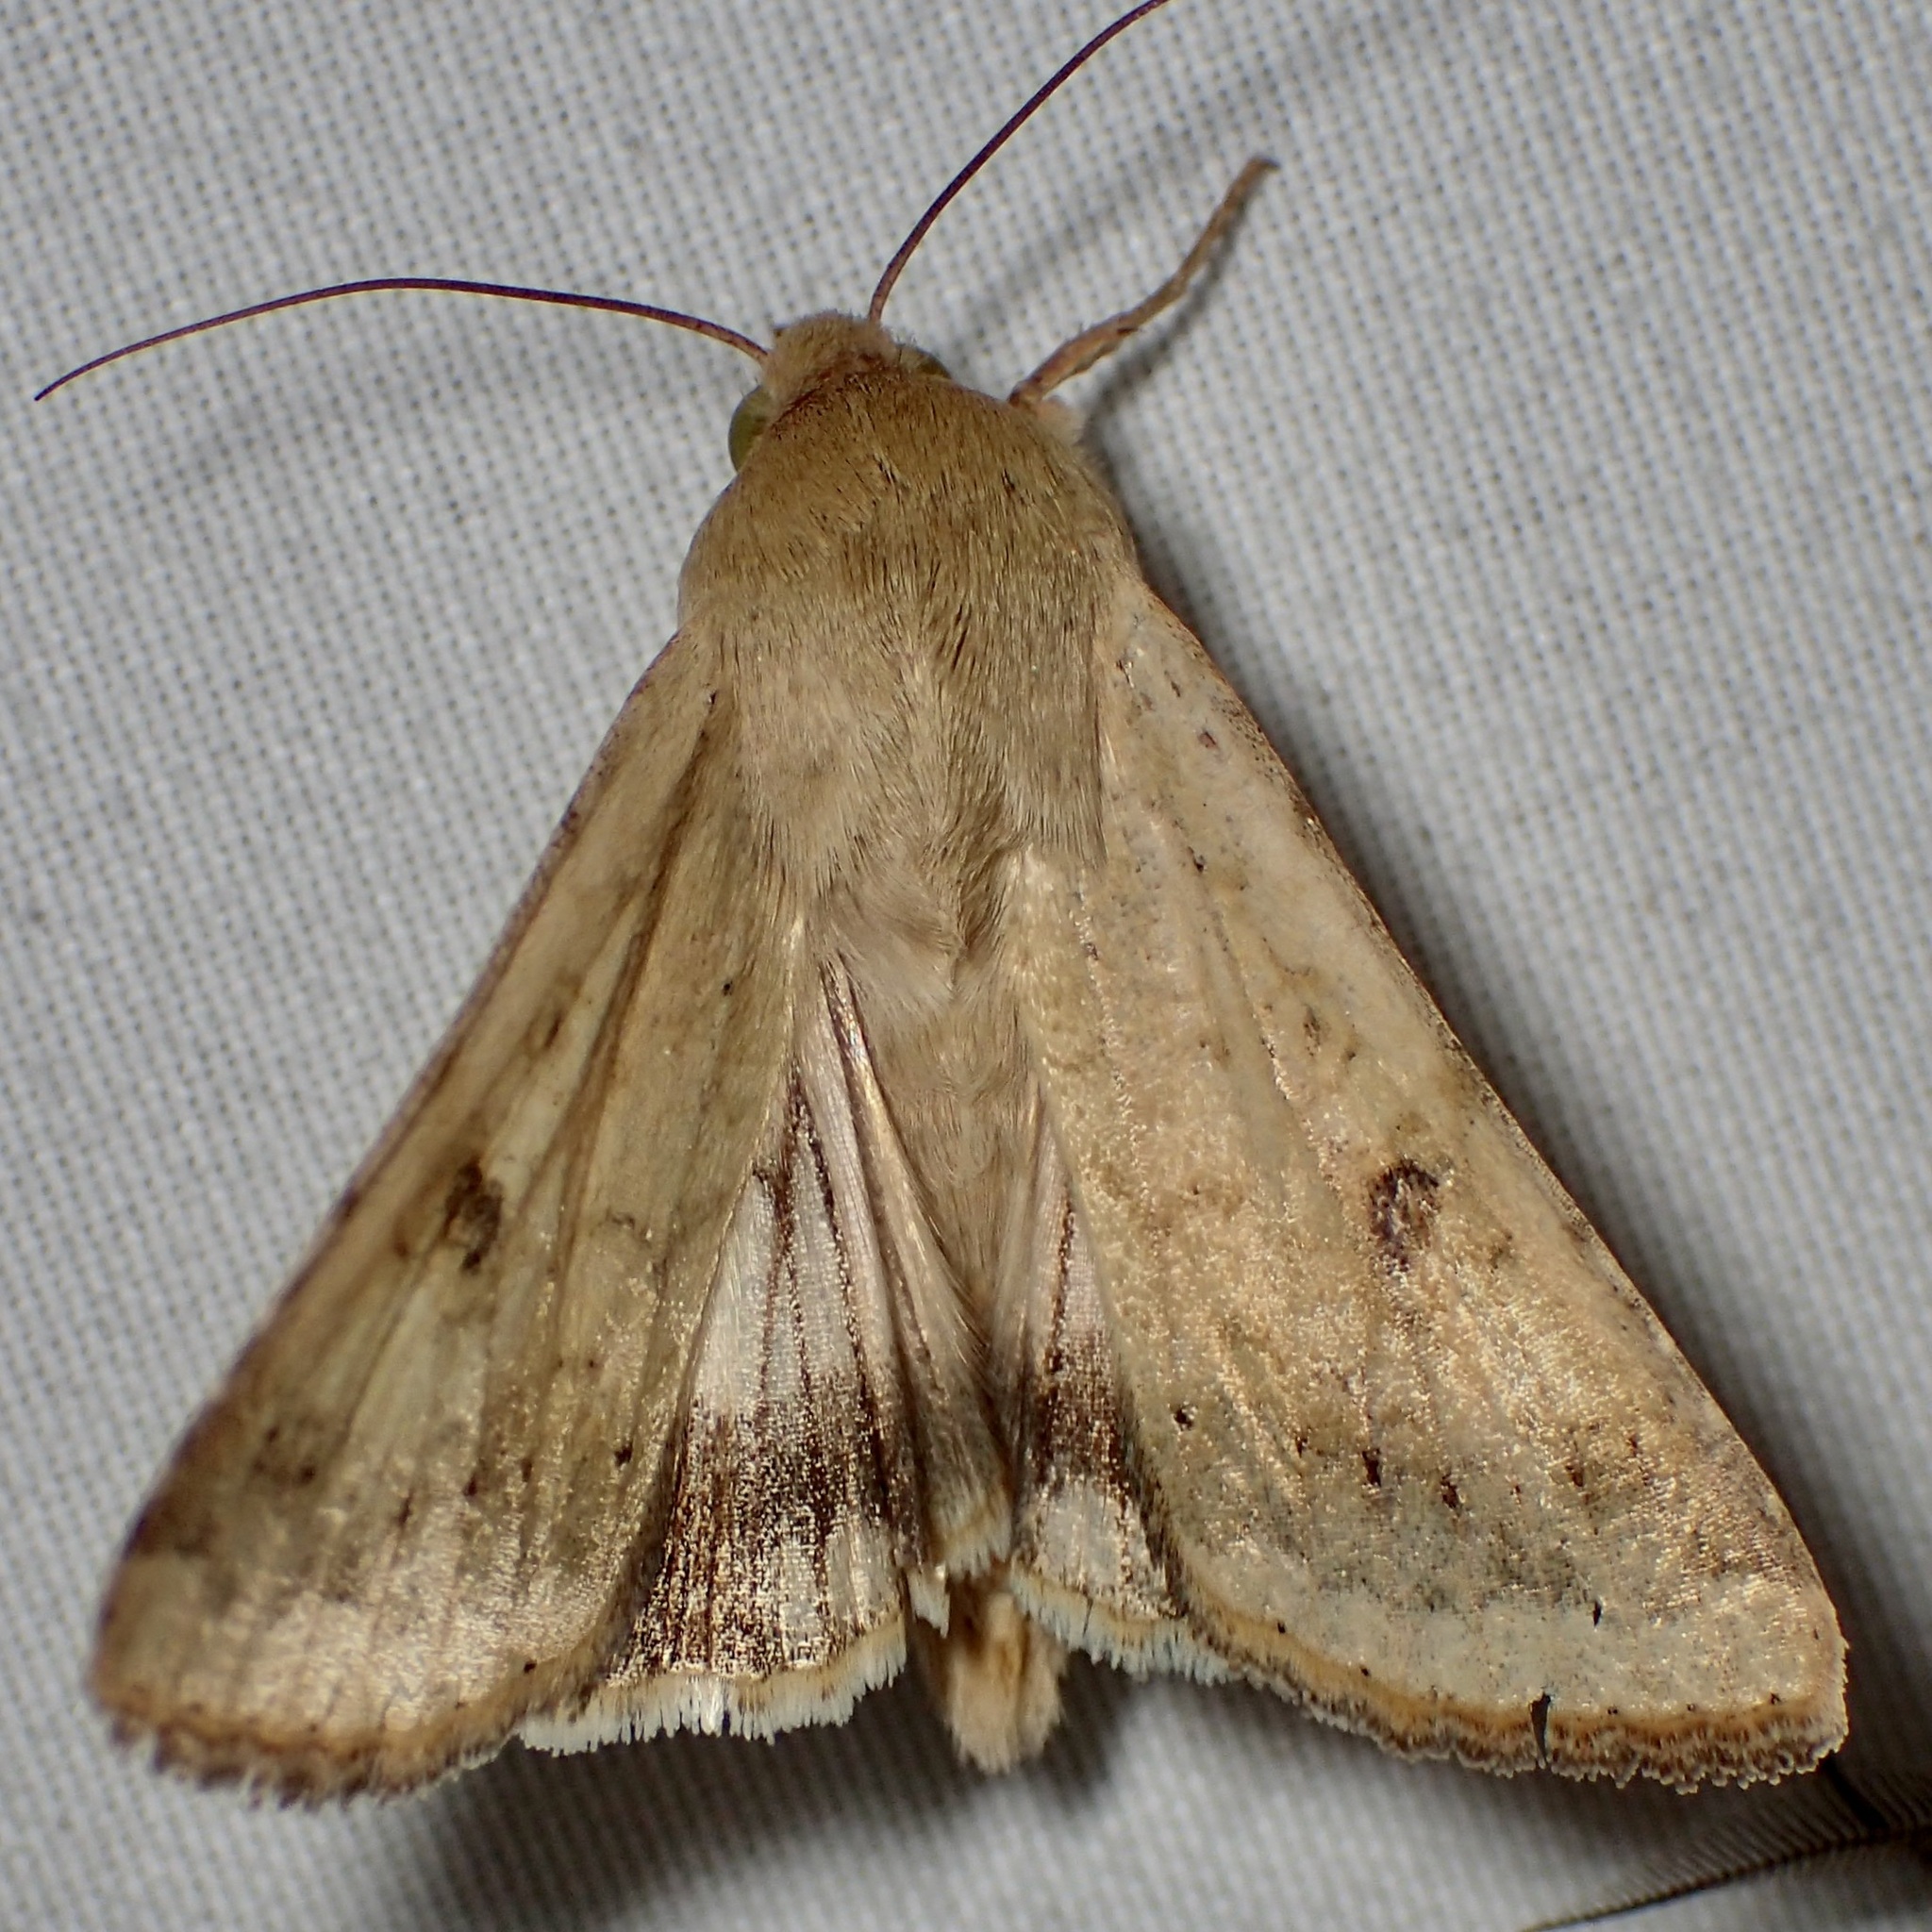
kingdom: Animalia
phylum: Arthropoda
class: Insecta
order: Lepidoptera
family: Noctuidae
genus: Helicoverpa
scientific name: Helicoverpa zea
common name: Bollworm
